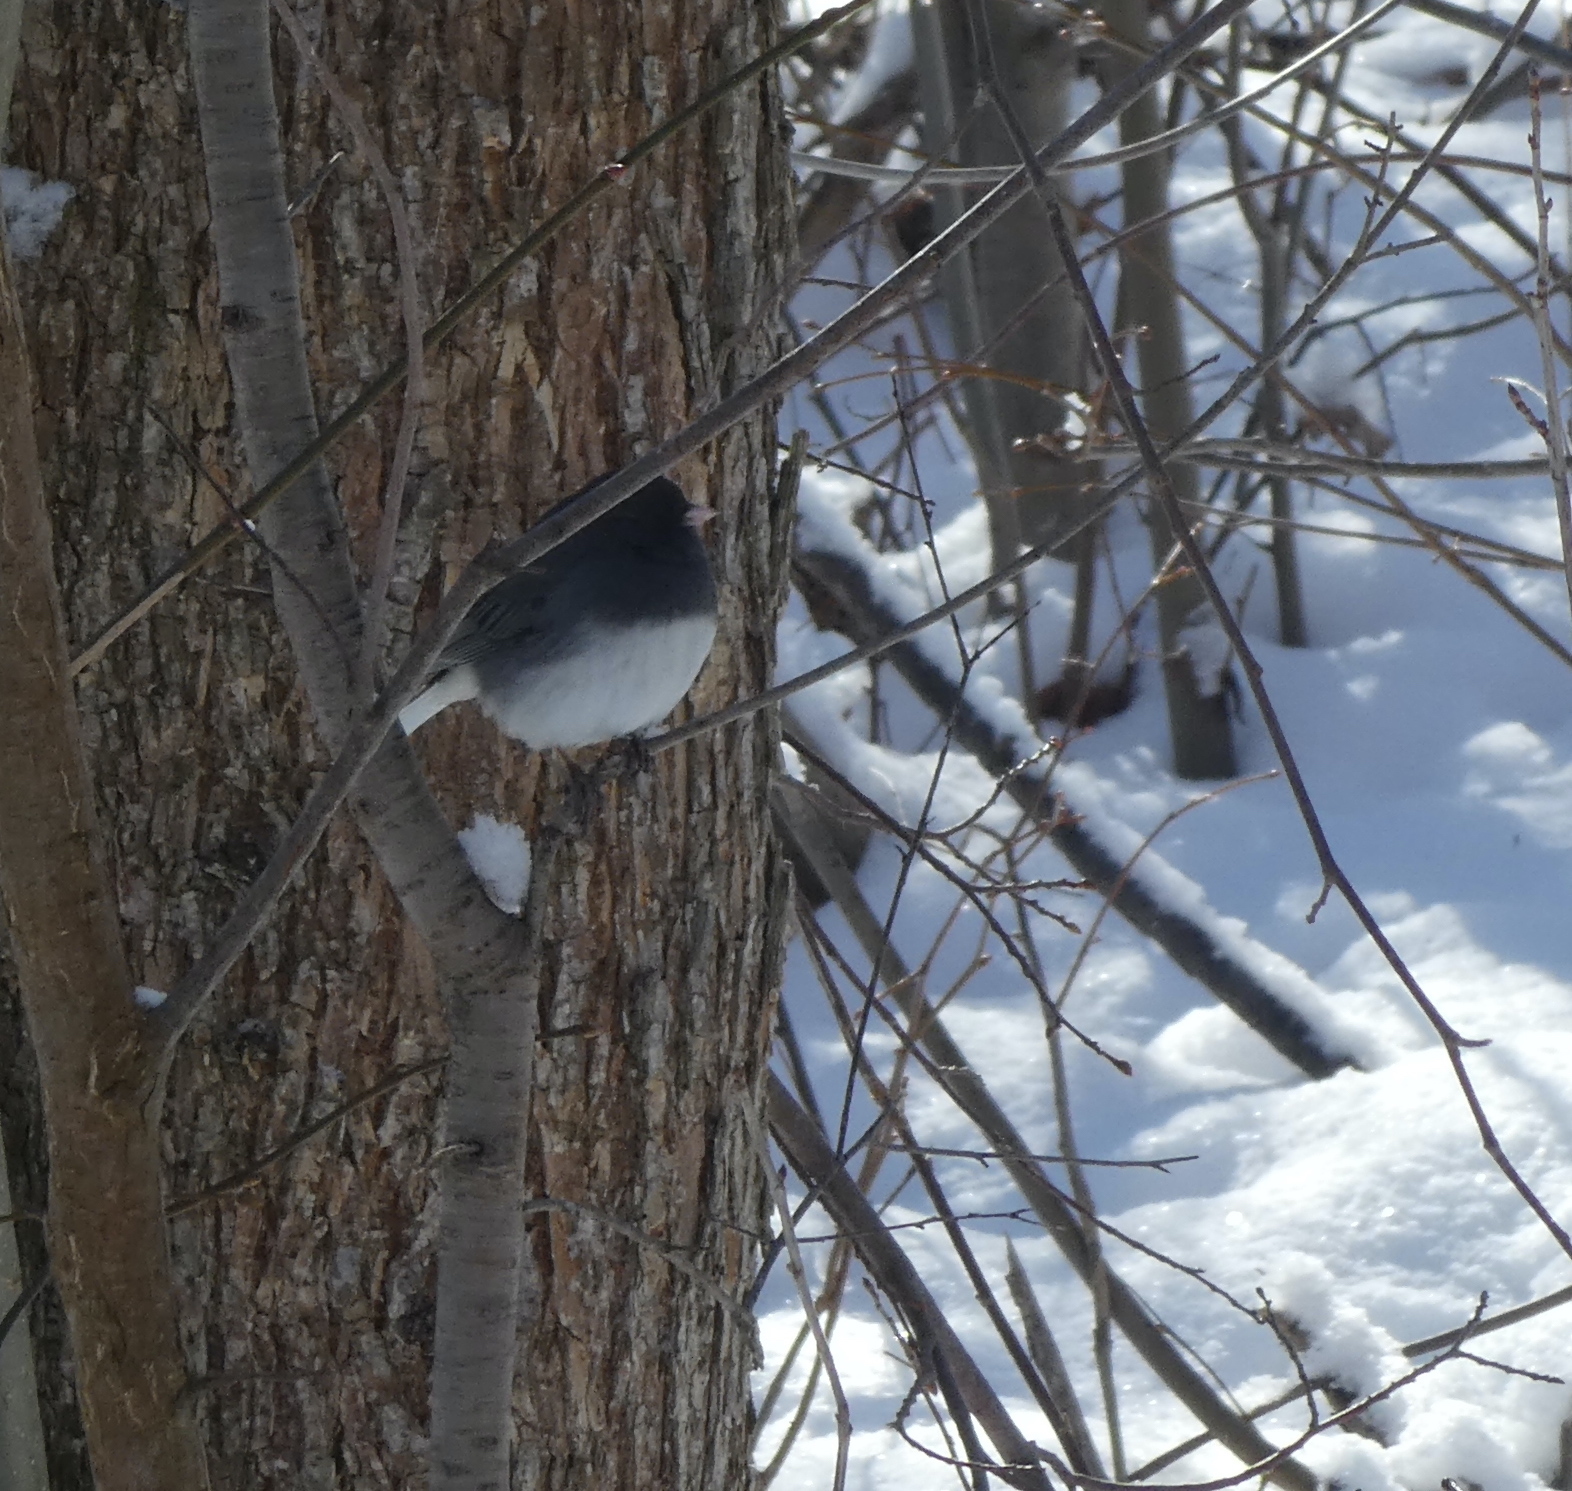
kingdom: Animalia
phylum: Chordata
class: Aves
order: Passeriformes
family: Passerellidae
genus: Junco
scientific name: Junco hyemalis
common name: Dark-eyed junco
